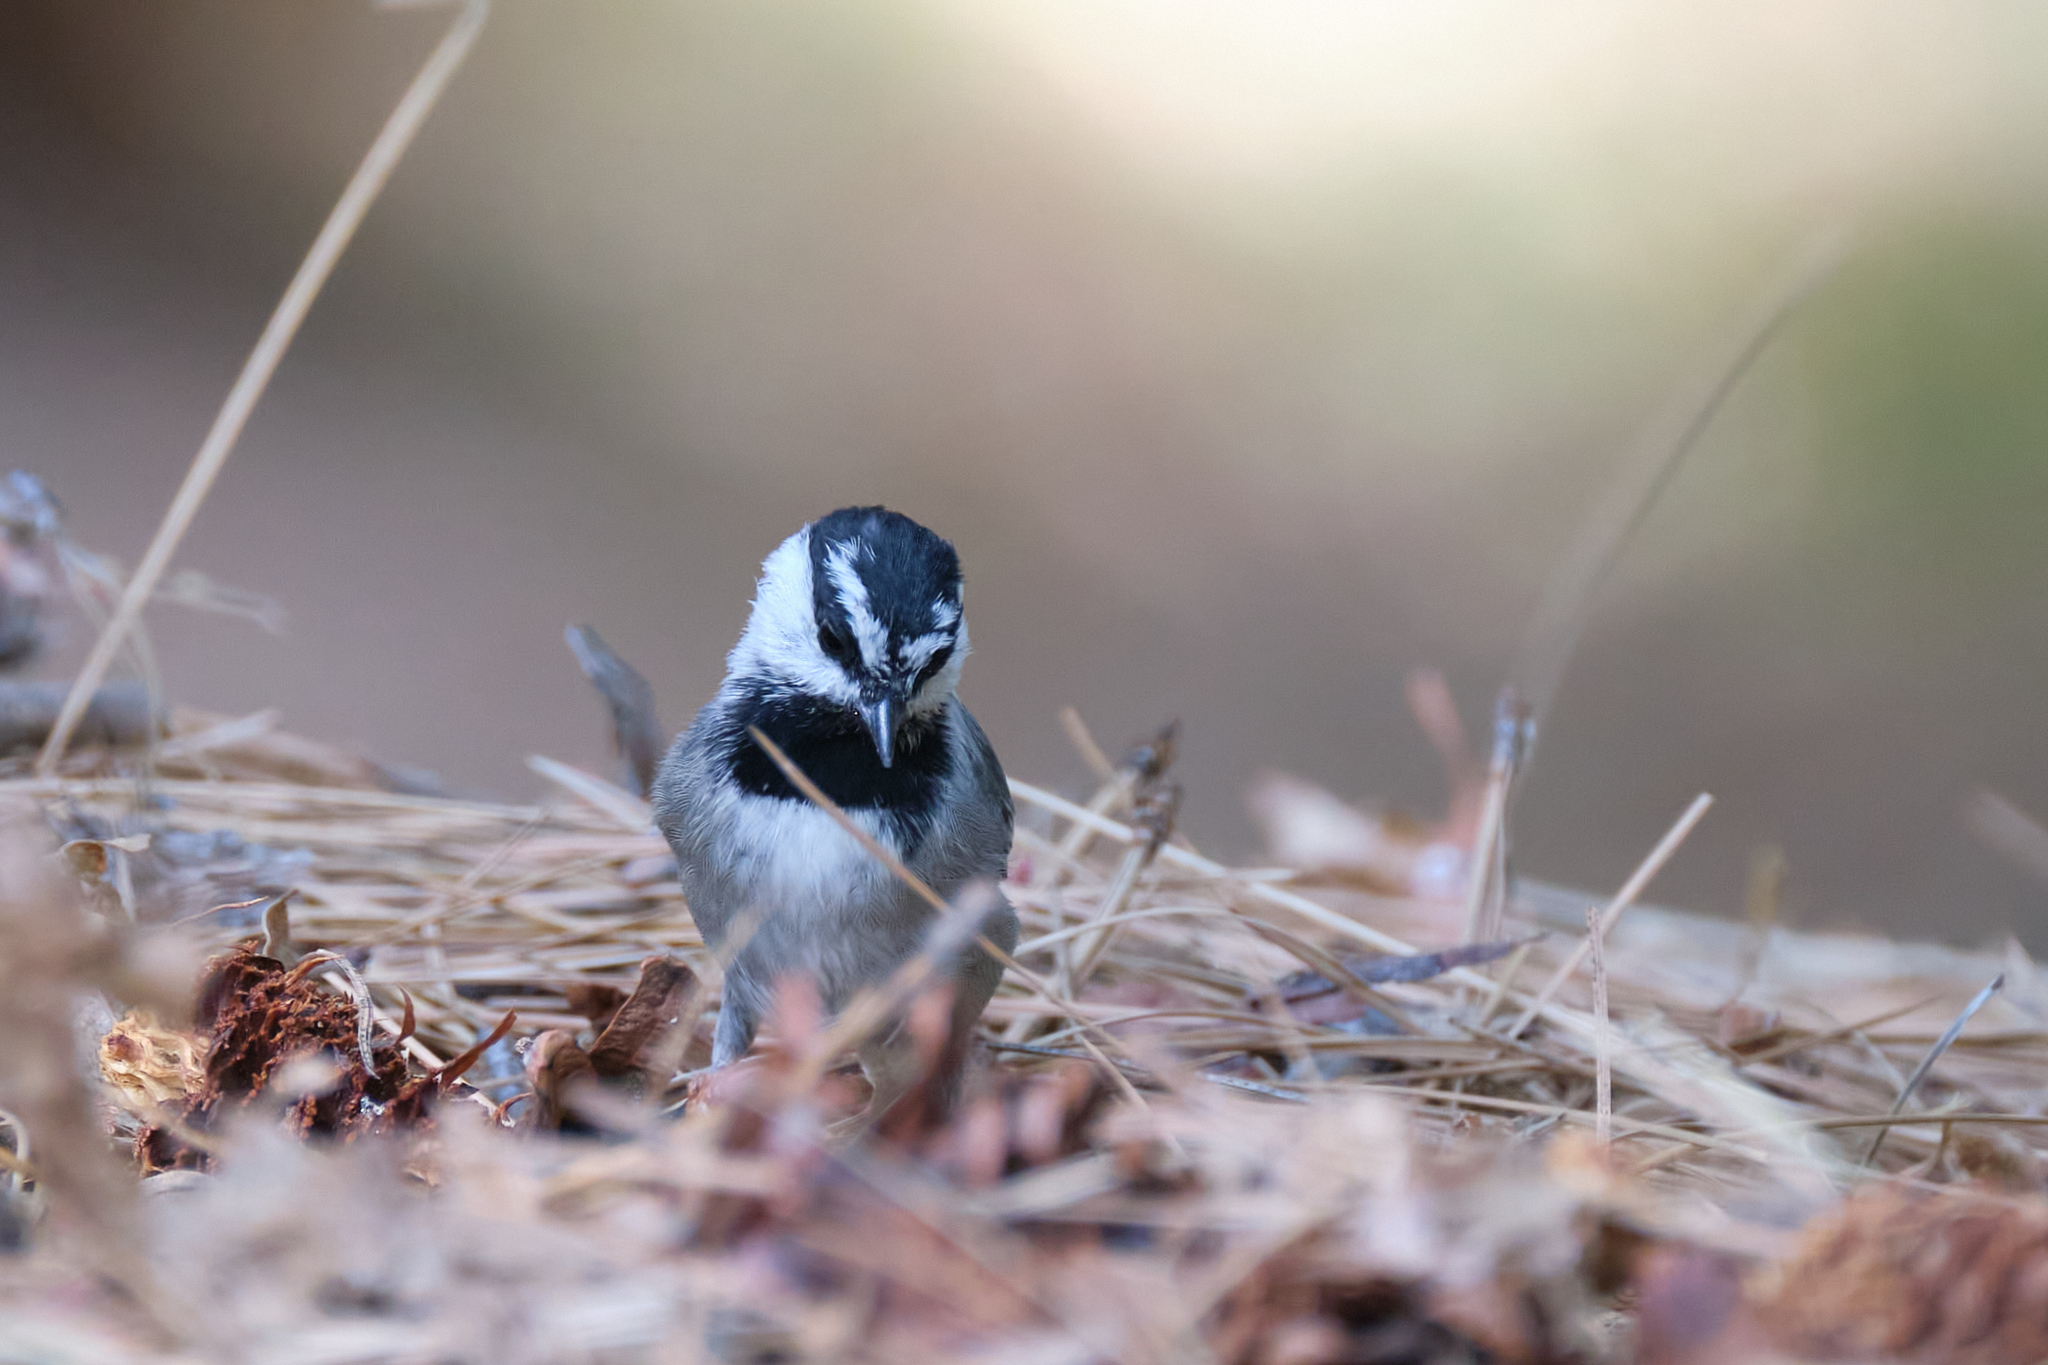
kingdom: Animalia
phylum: Chordata
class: Aves
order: Passeriformes
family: Paridae
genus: Poecile
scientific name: Poecile gambeli
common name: Mountain chickadee
